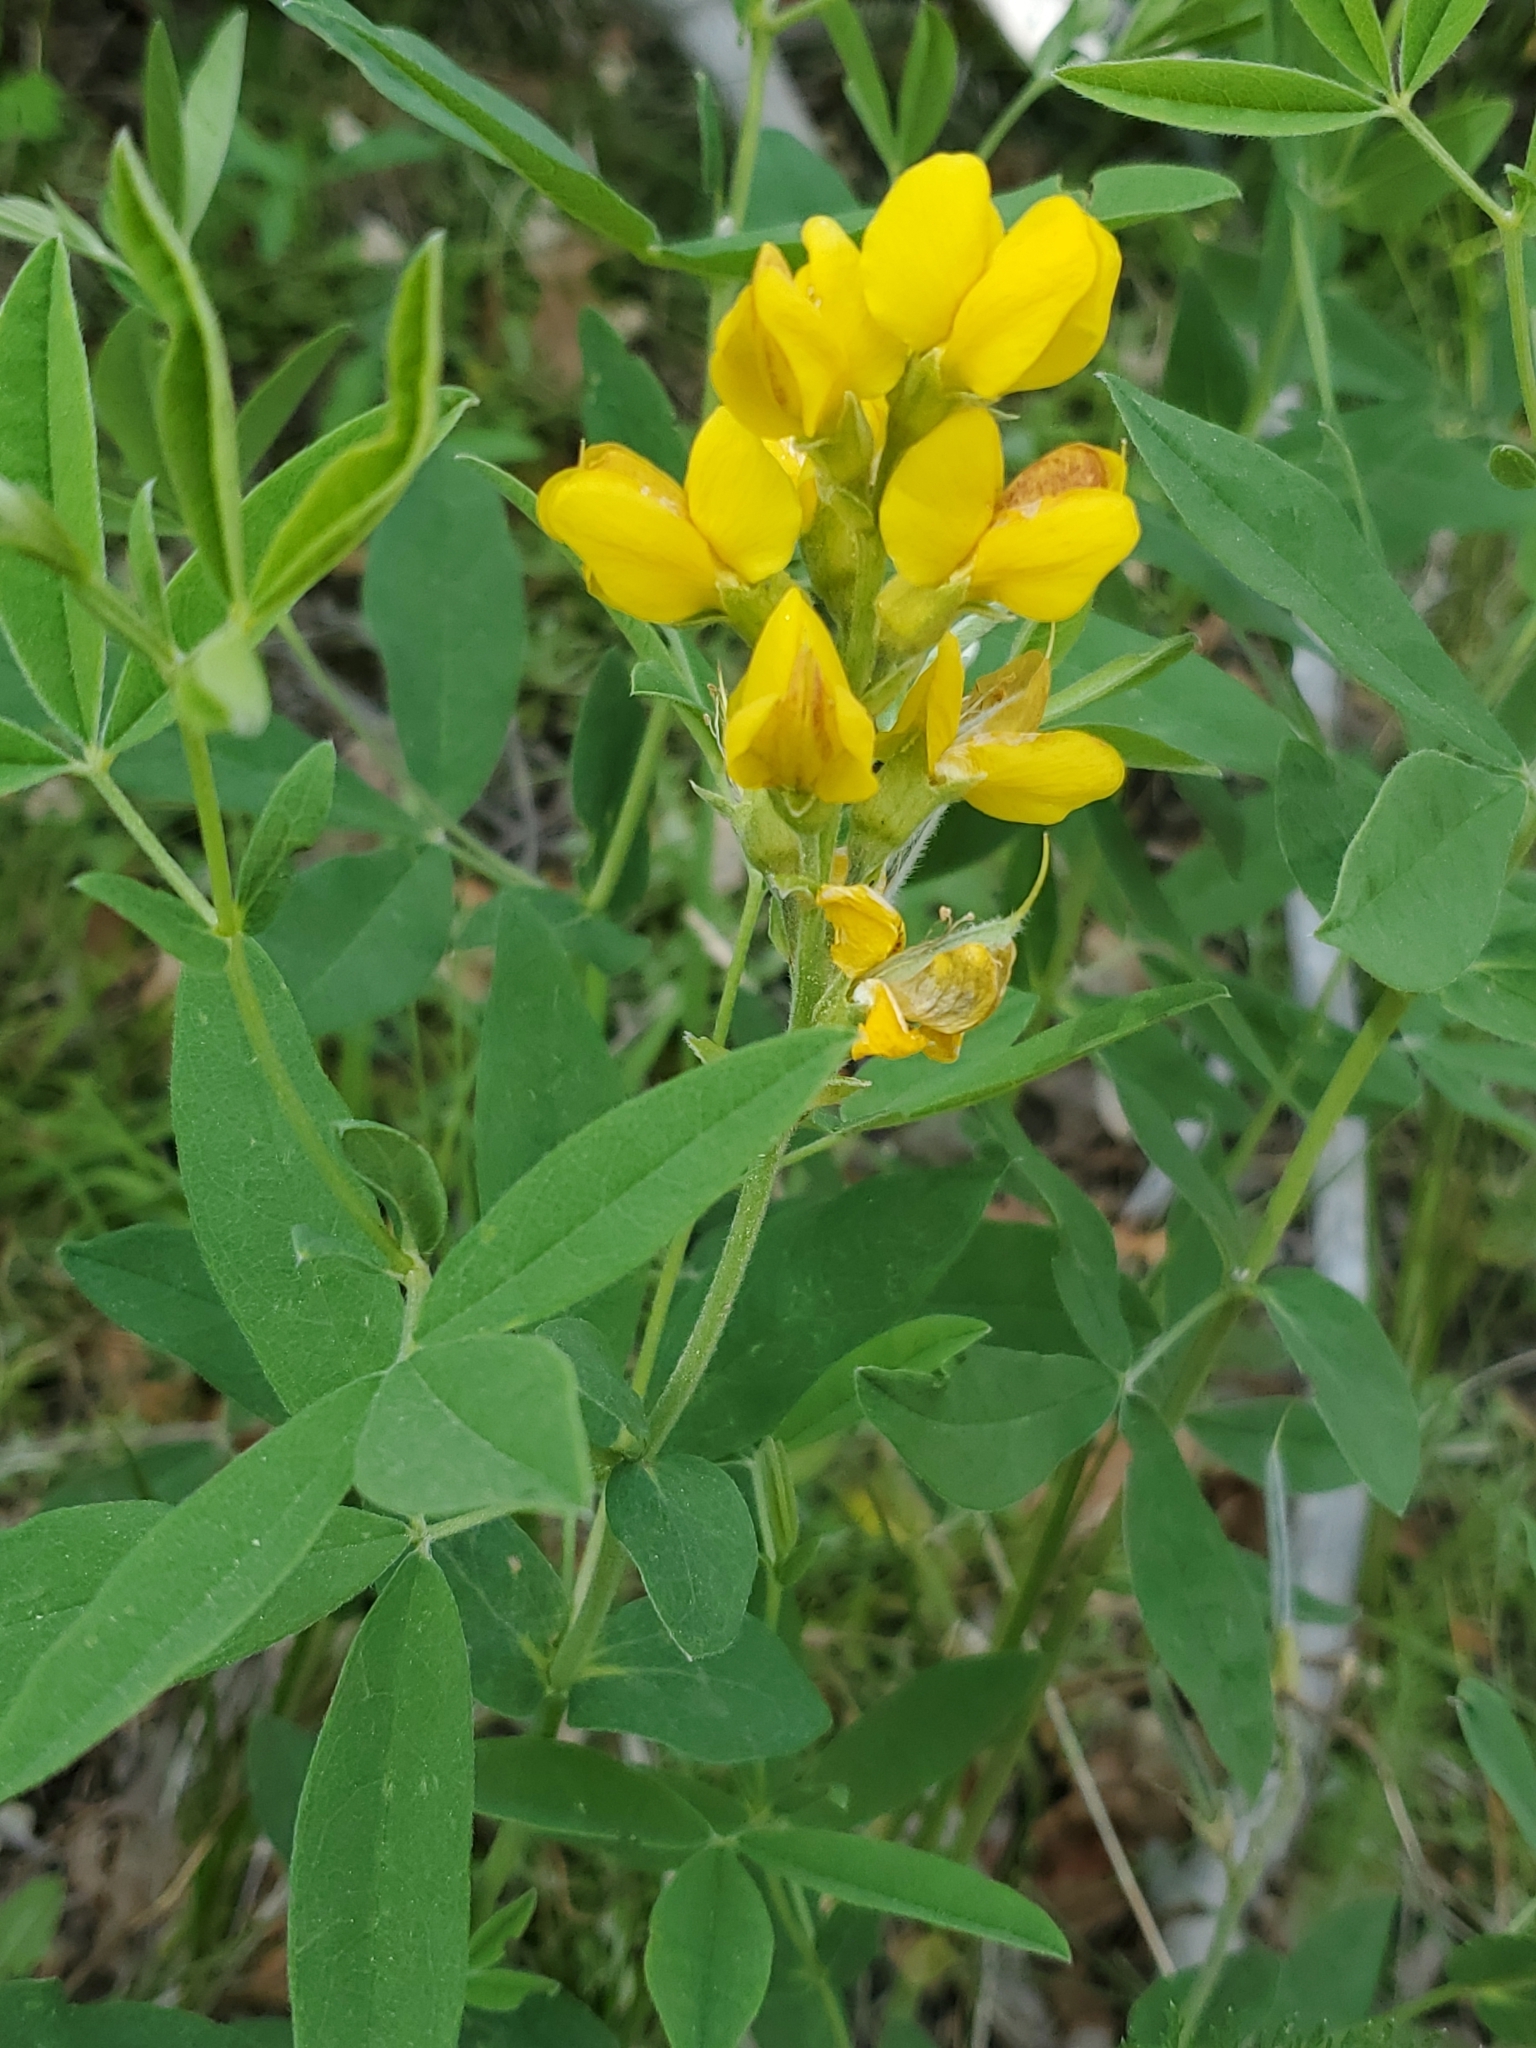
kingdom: Plantae
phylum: Tracheophyta
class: Magnoliopsida
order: Fabales
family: Fabaceae
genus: Thermopsis
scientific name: Thermopsis montana
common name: False lupin
